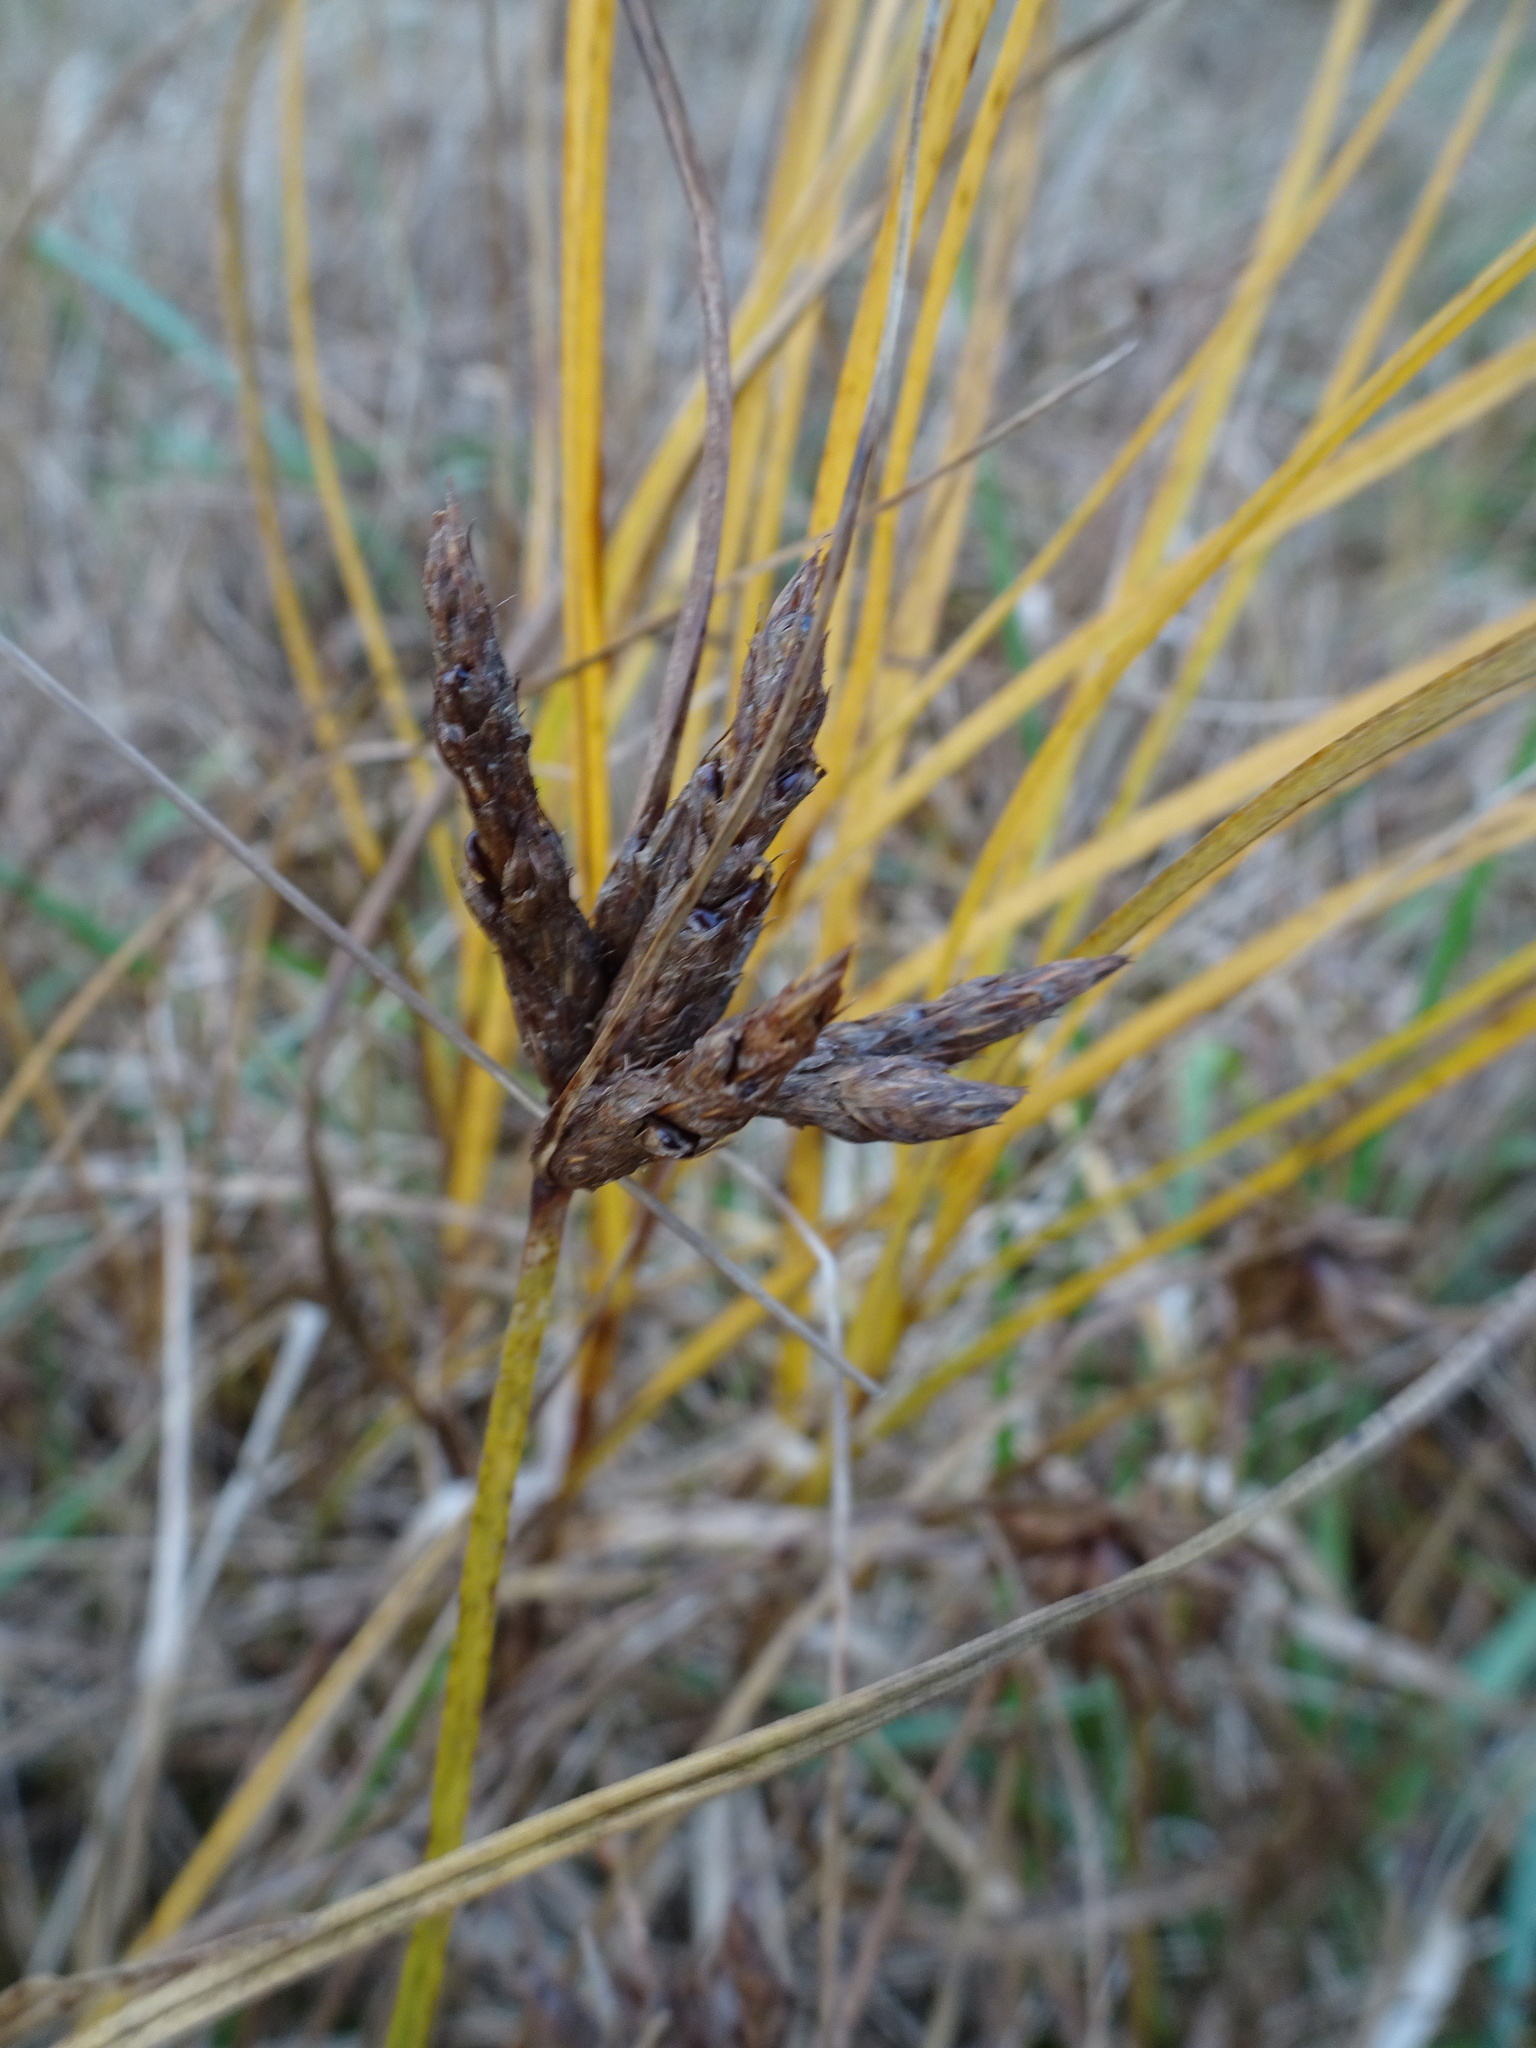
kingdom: Plantae
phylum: Tracheophyta
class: Liliopsida
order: Poales
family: Cyperaceae
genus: Bolboschoenus
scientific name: Bolboschoenus maritimus
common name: Sea club-rush
